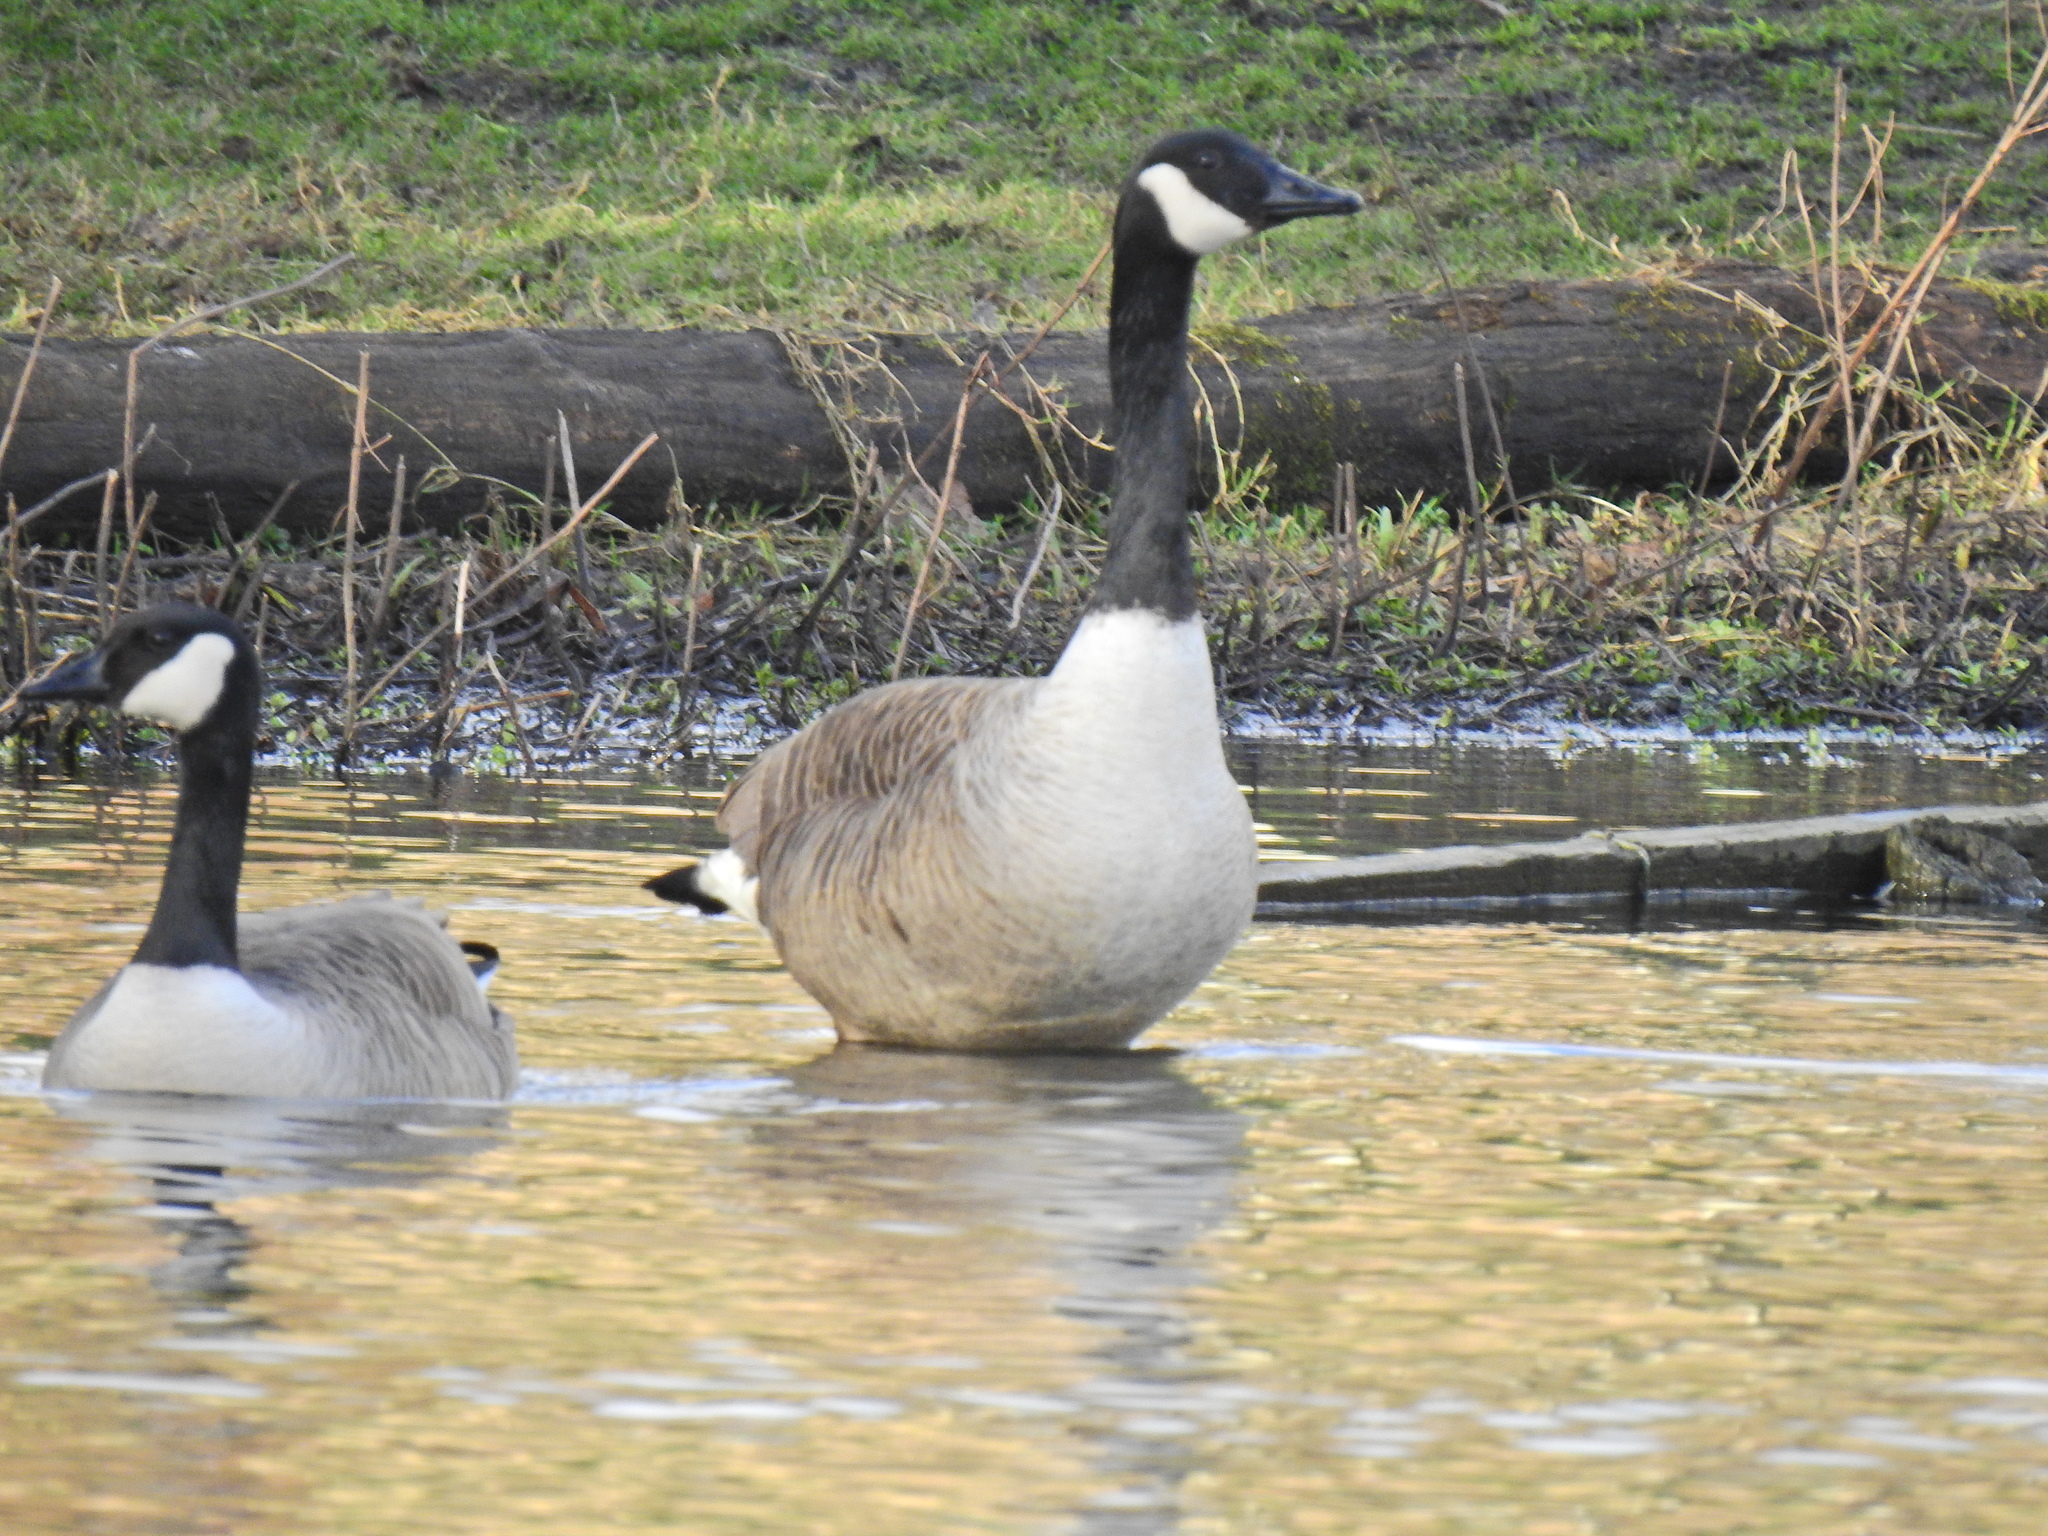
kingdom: Animalia
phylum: Chordata
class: Aves
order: Anseriformes
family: Anatidae
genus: Branta
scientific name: Branta canadensis
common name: Canada goose
